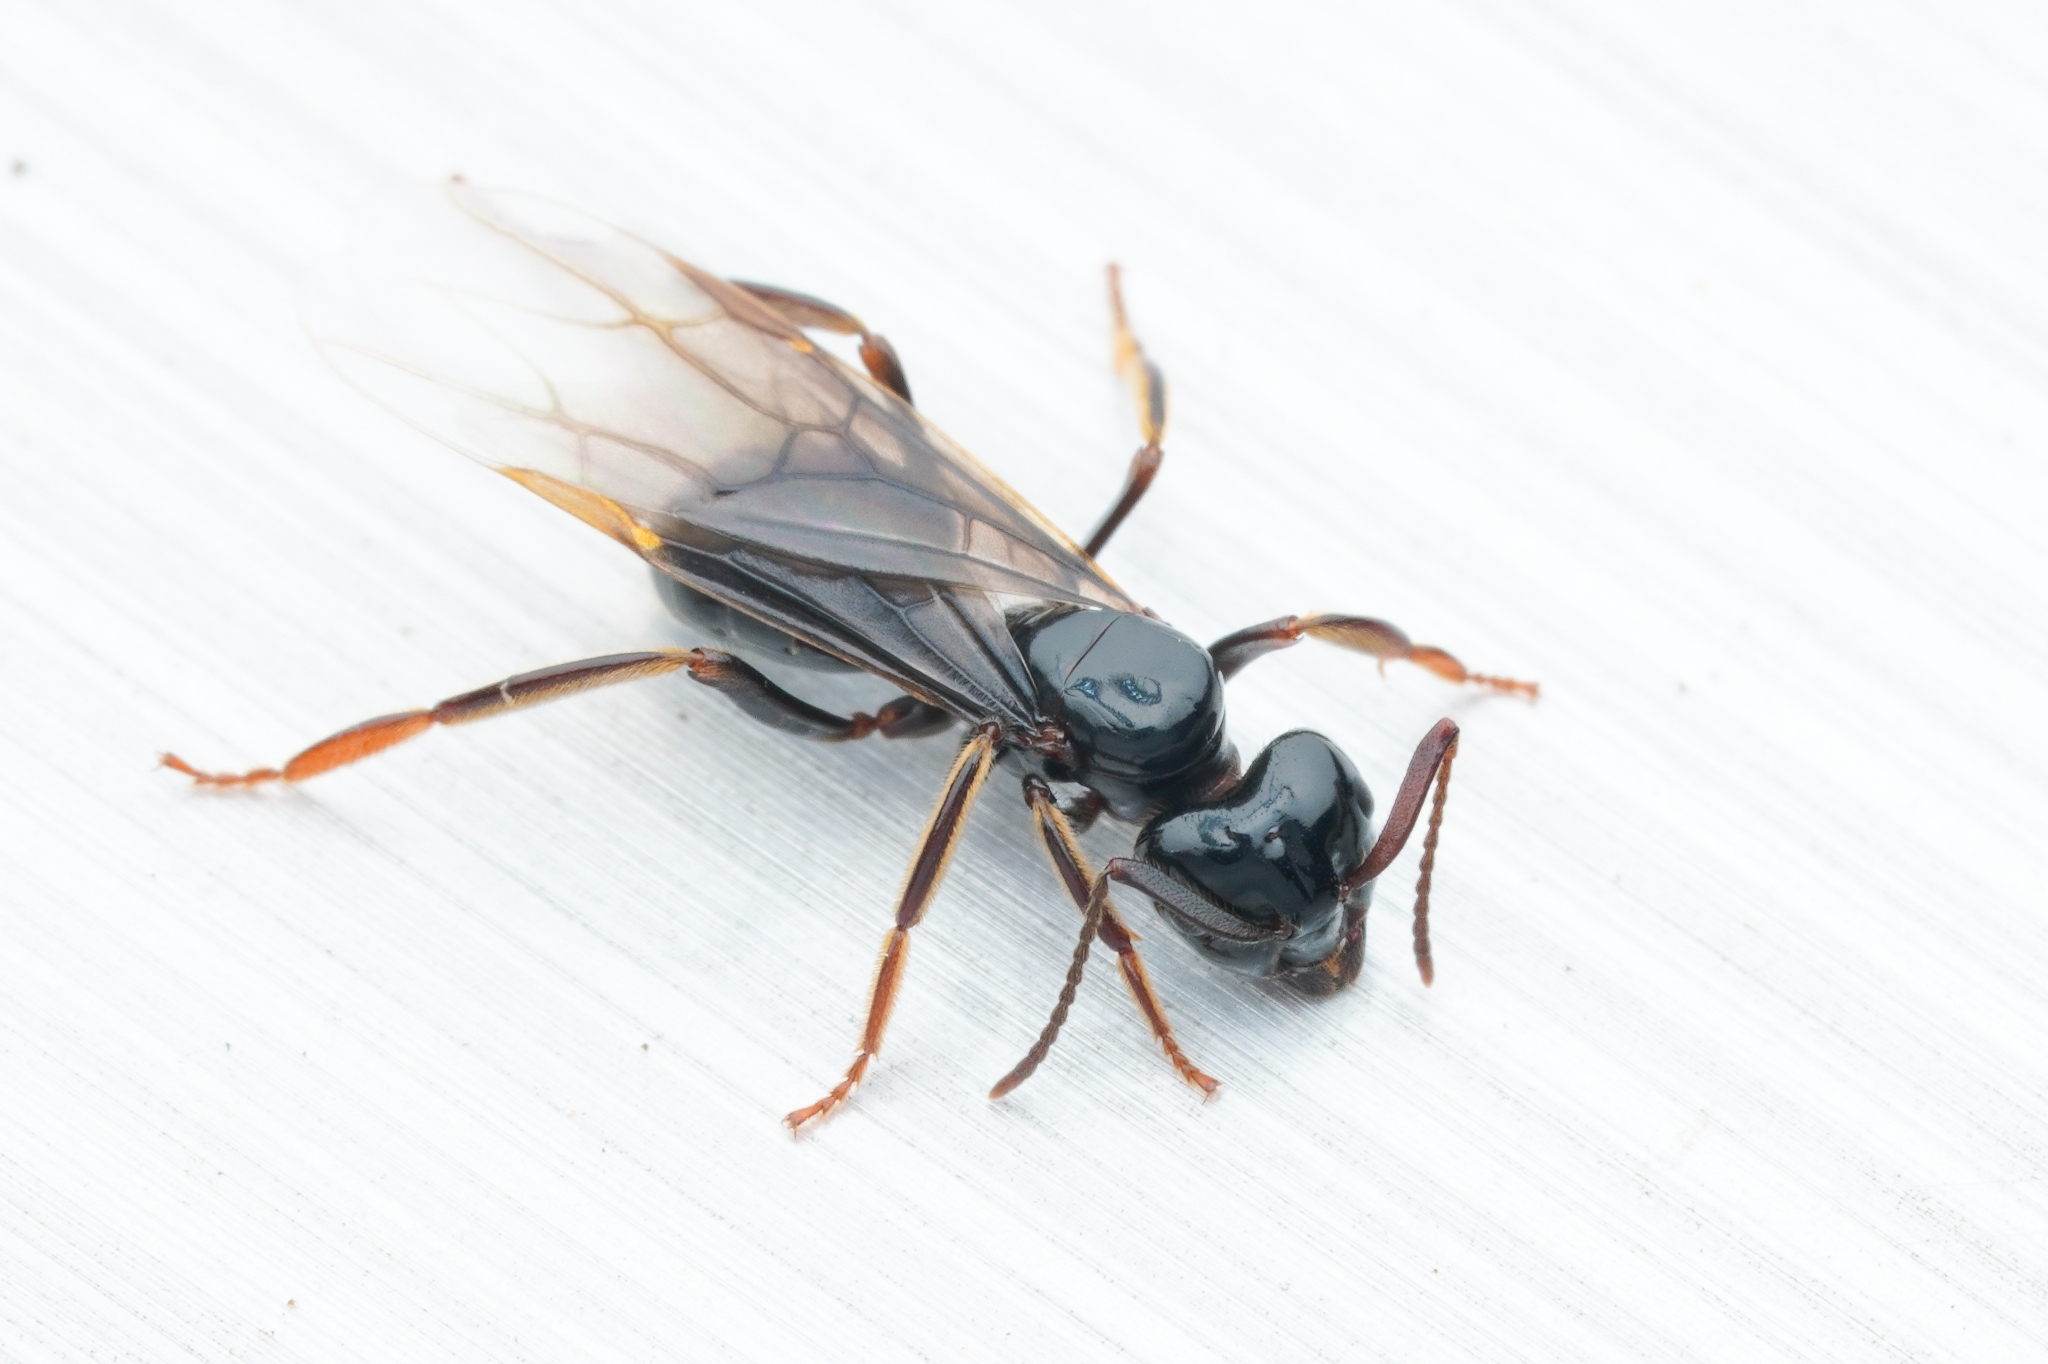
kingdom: Animalia
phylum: Arthropoda
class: Insecta
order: Hymenoptera
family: Formicidae
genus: Lasius
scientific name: Lasius spathepus
